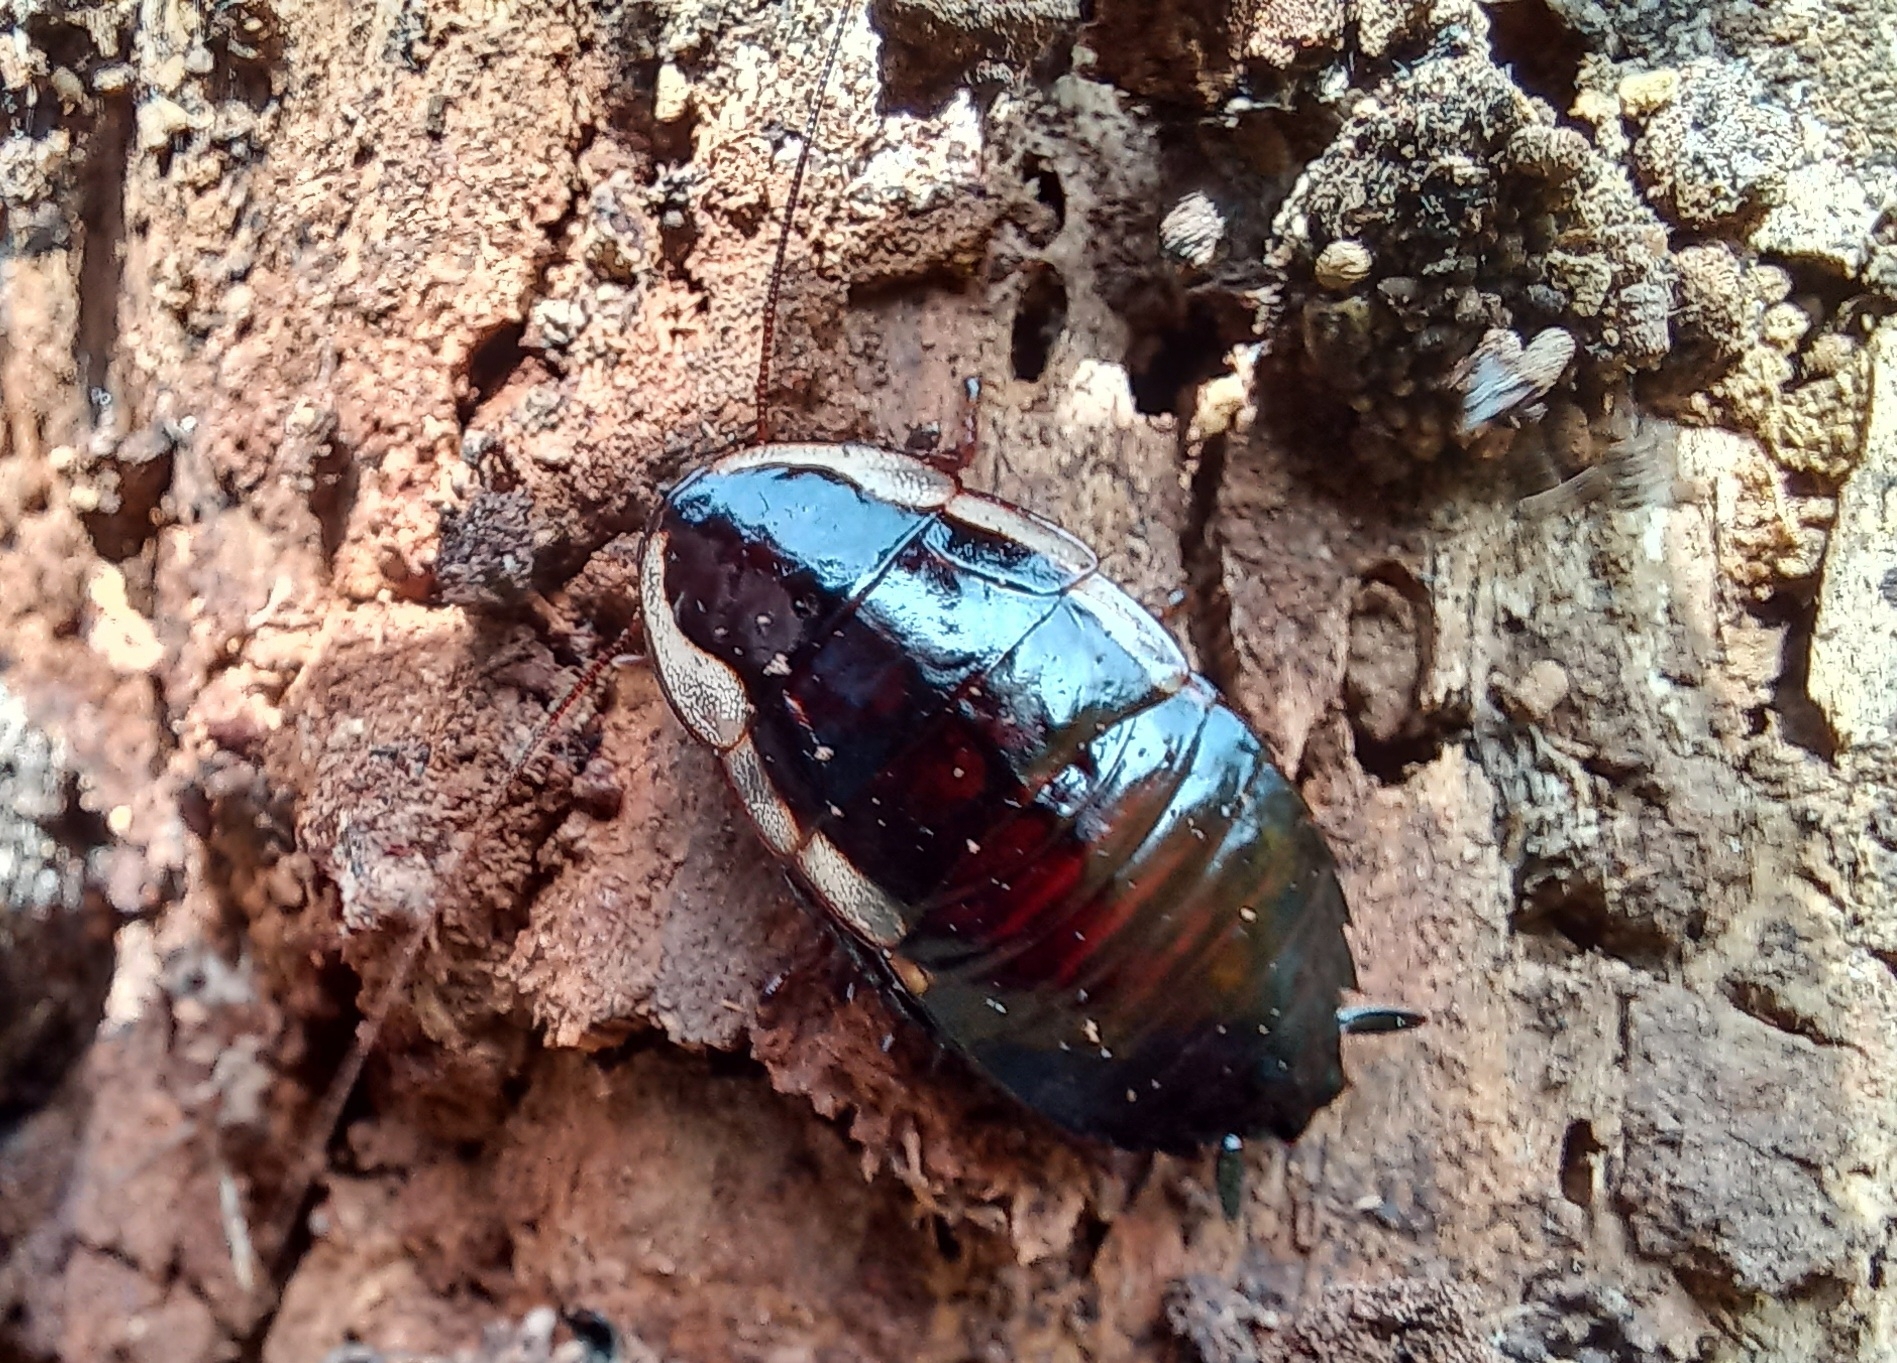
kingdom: Animalia
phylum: Arthropoda
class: Insecta
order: Blattodea
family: Blattidae
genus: Drymaplaneta
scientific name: Drymaplaneta semivitta
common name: Gisborne cockroach
